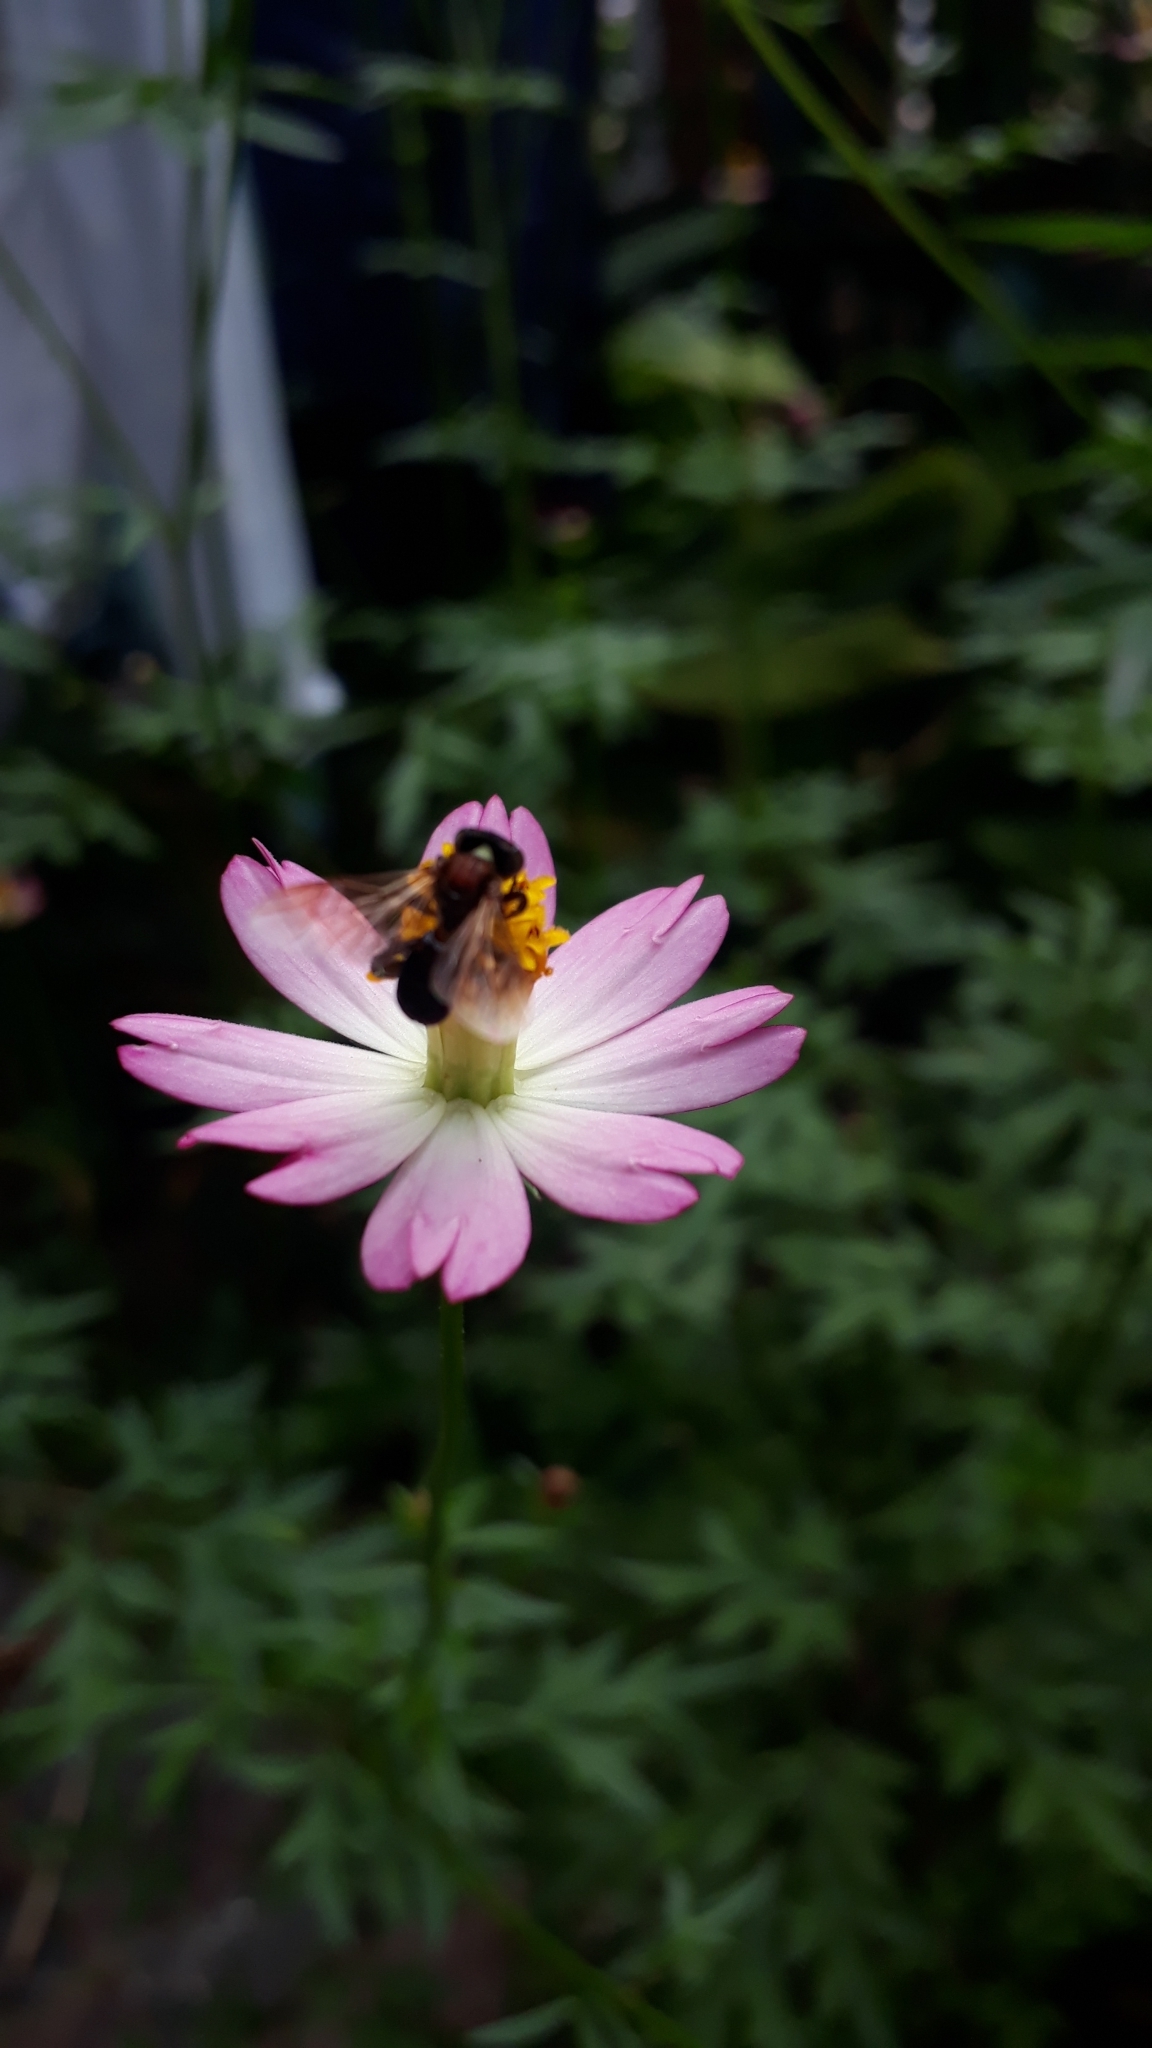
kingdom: Animalia
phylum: Arthropoda
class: Insecta
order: Hymenoptera
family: Apidae
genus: Geniotrigona
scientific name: Geniotrigona thoracica
